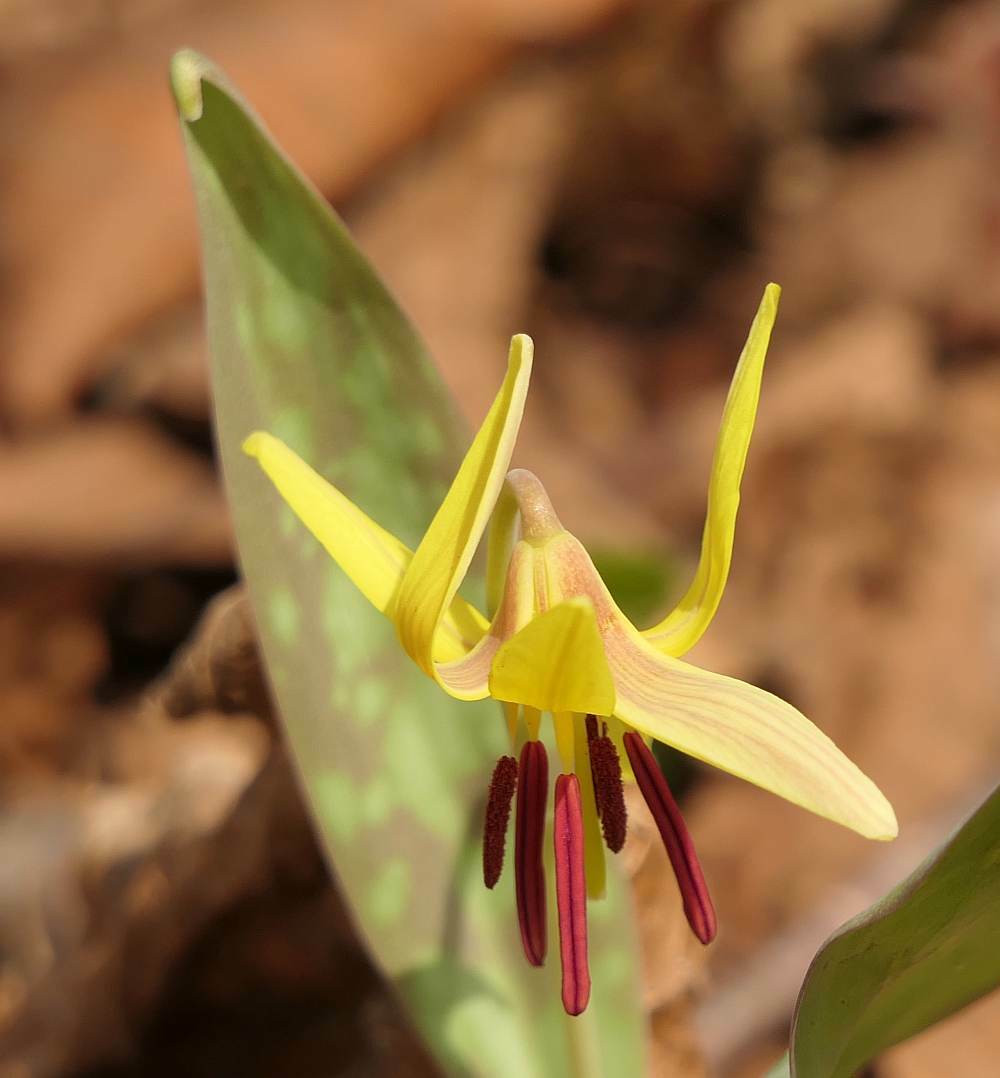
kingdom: Plantae
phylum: Tracheophyta
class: Liliopsida
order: Liliales
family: Liliaceae
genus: Erythronium
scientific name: Erythronium americanum
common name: Yellow adder's-tongue
